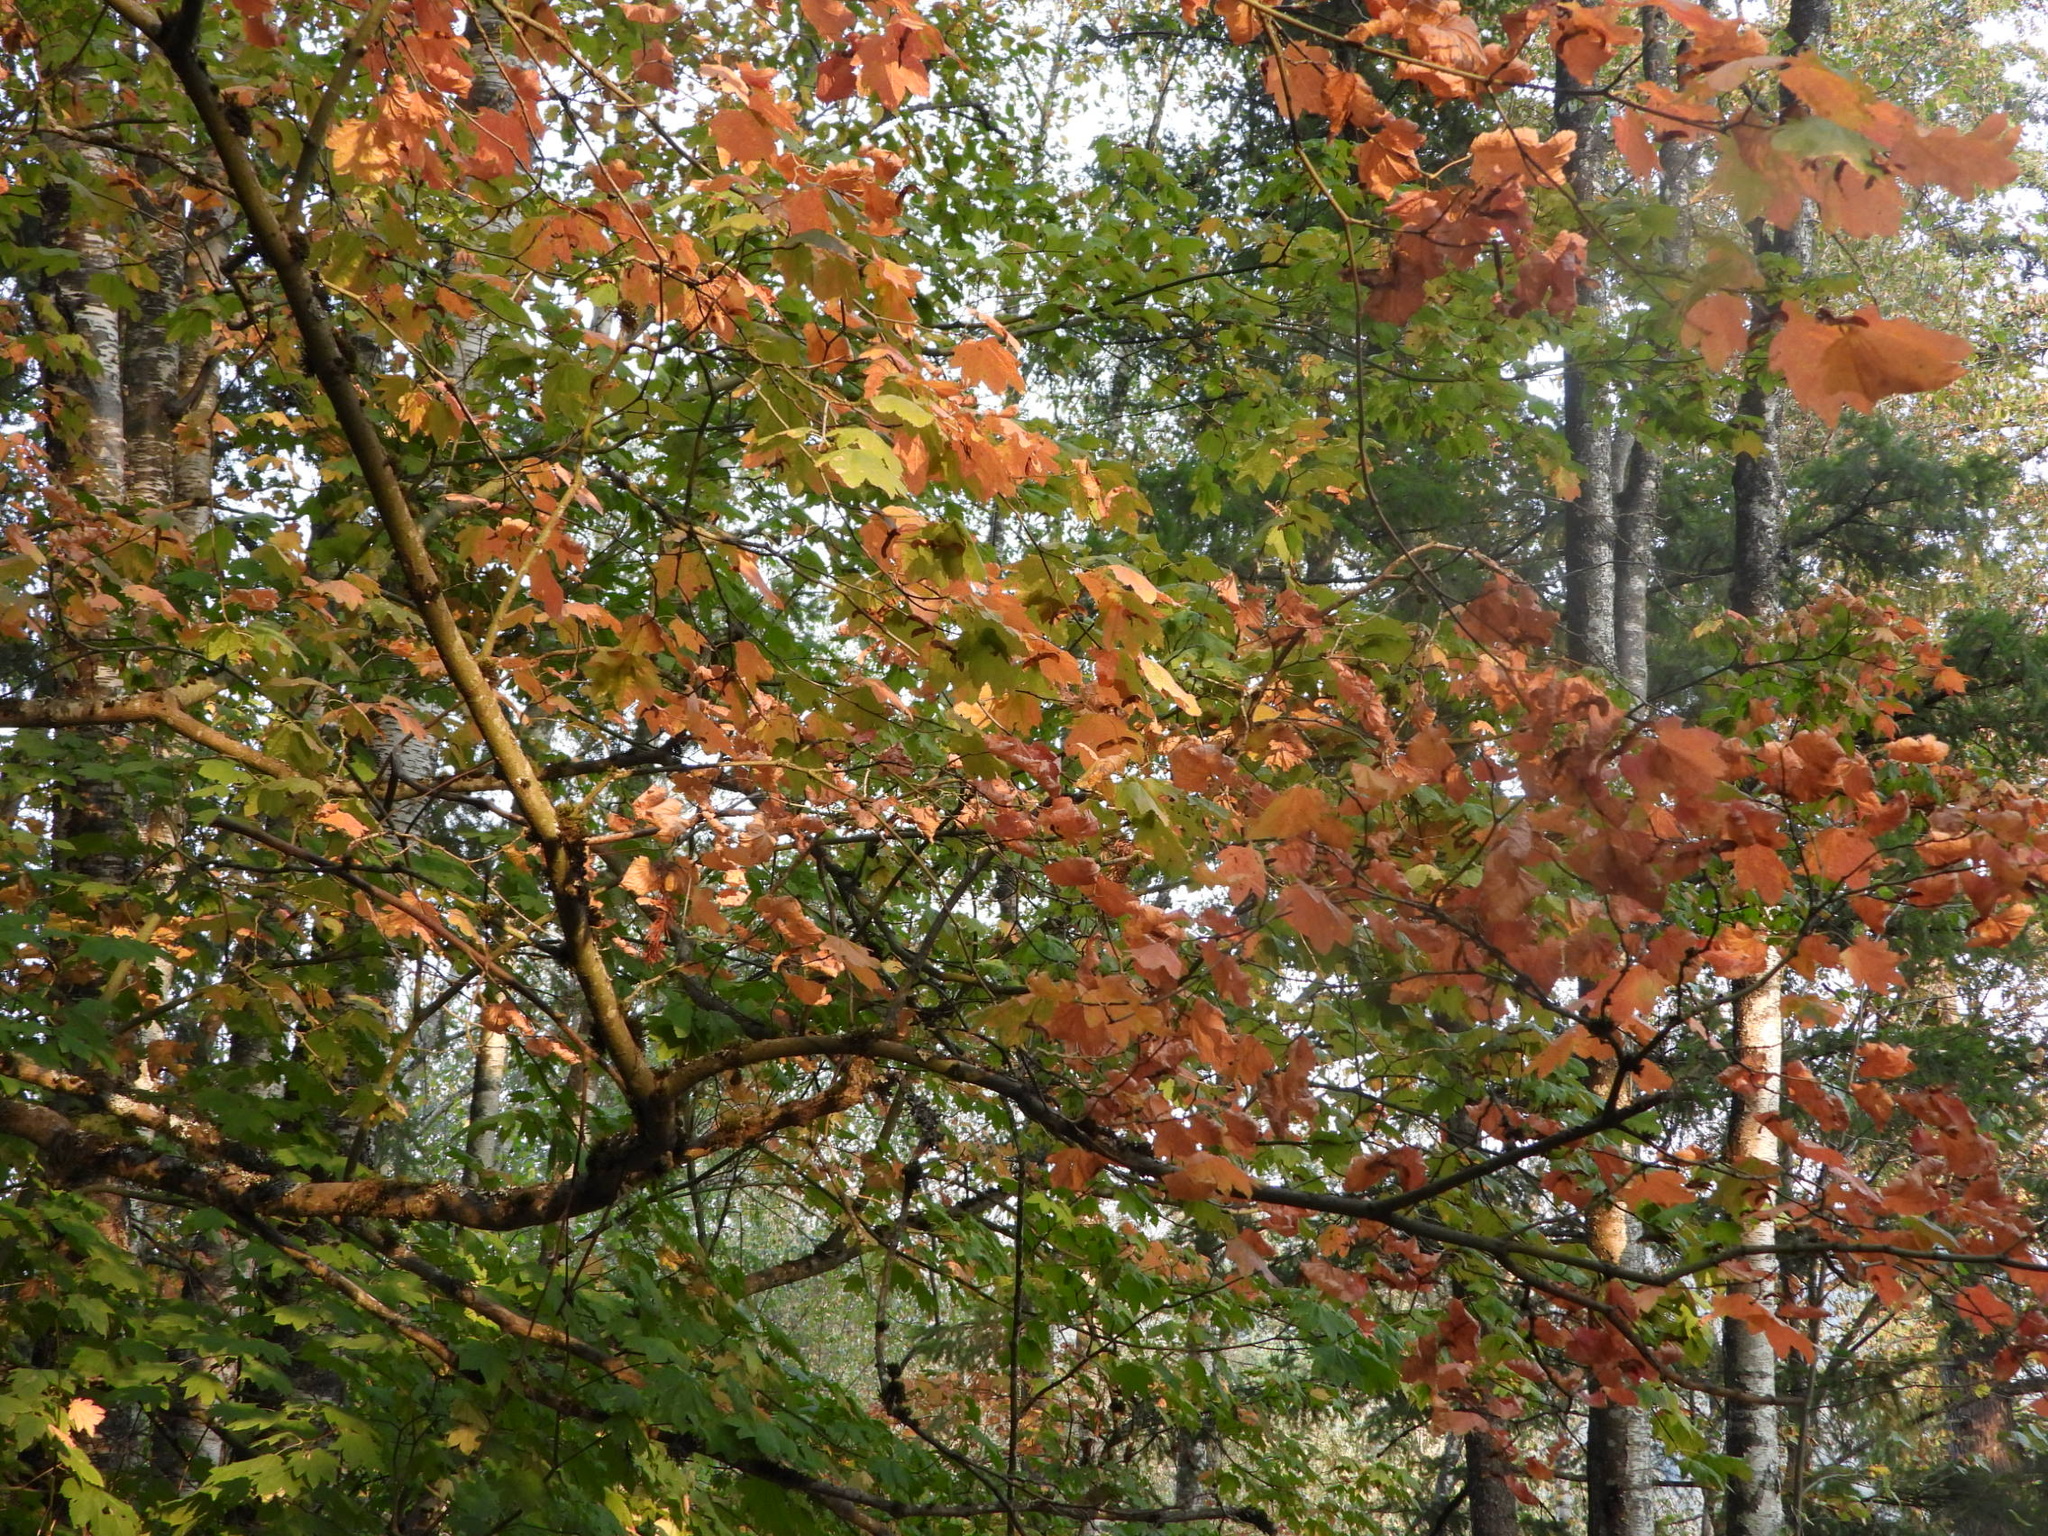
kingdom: Plantae
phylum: Tracheophyta
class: Magnoliopsida
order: Sapindales
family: Sapindaceae
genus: Acer
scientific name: Acer circinatum
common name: Vine maple
